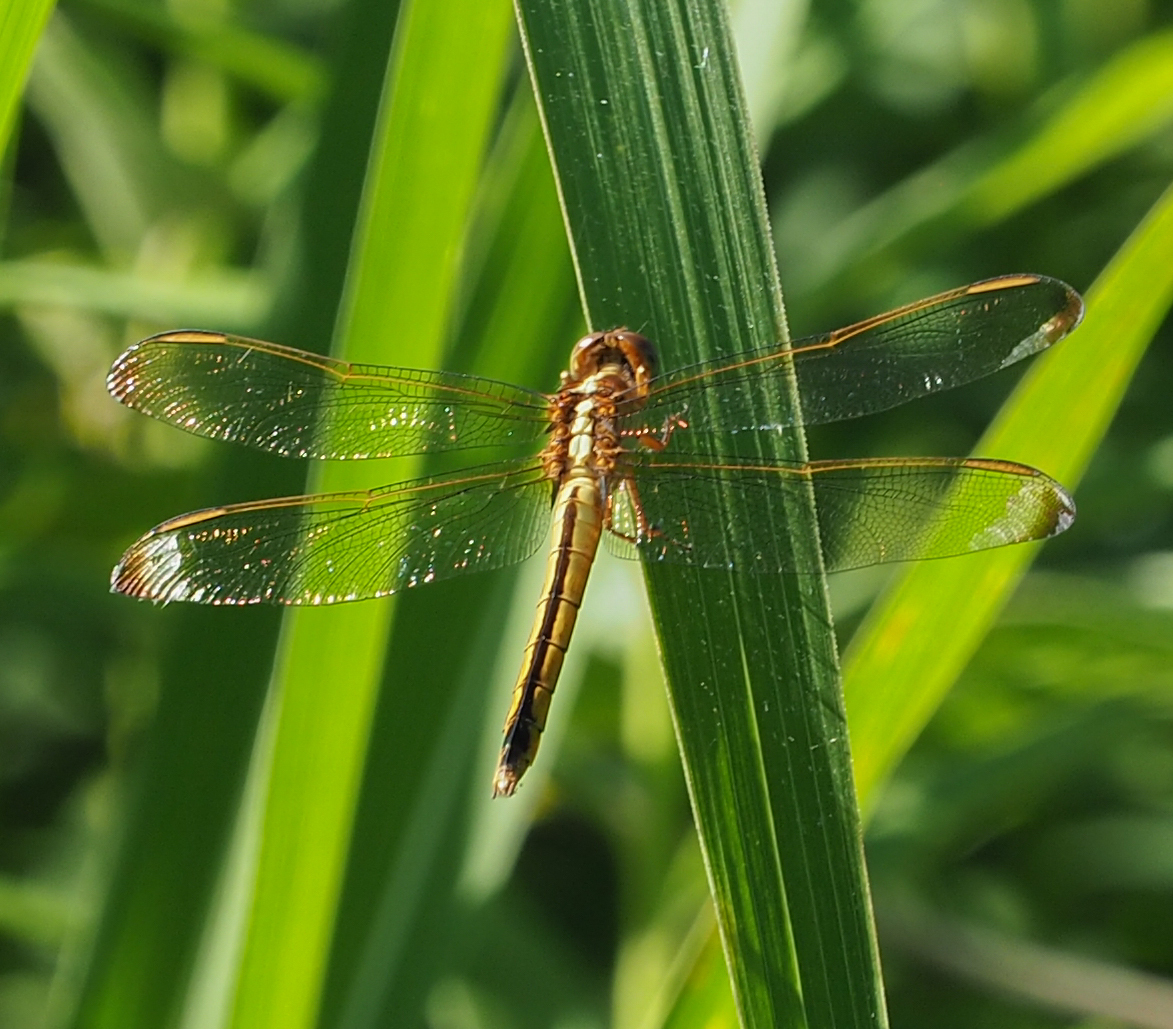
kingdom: Animalia
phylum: Arthropoda
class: Insecta
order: Odonata
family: Libellulidae
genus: Libellula
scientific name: Libellula needhami
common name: Needham's skimmer
